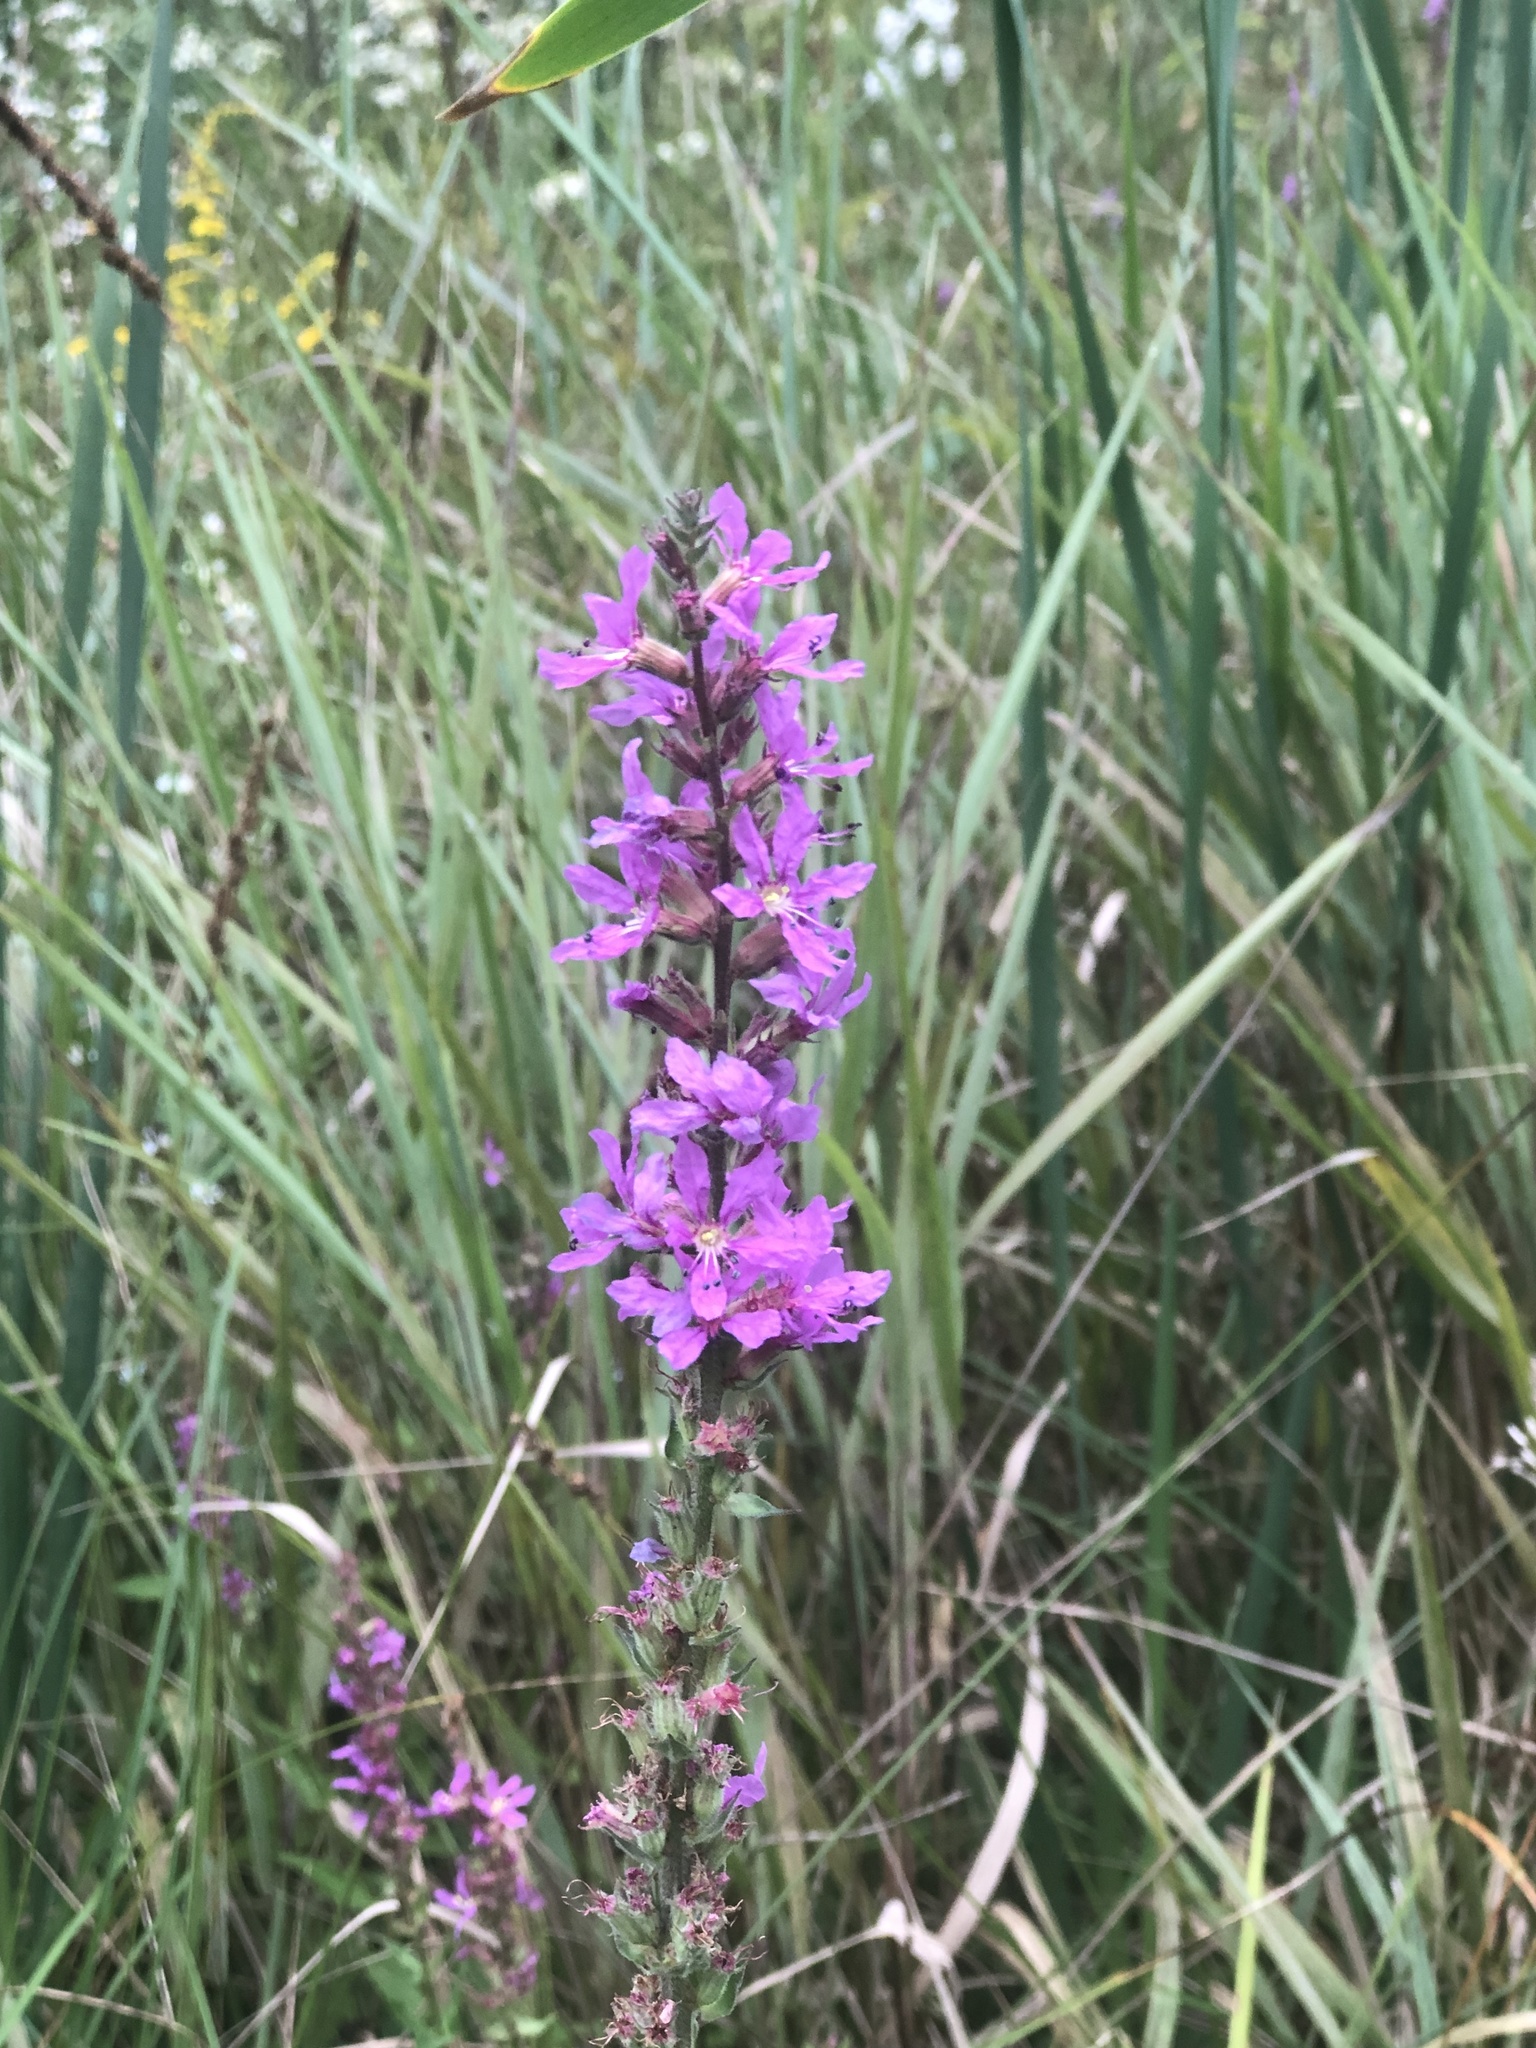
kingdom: Plantae
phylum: Tracheophyta
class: Magnoliopsida
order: Myrtales
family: Lythraceae
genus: Lythrum
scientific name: Lythrum salicaria
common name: Purple loosestrife
